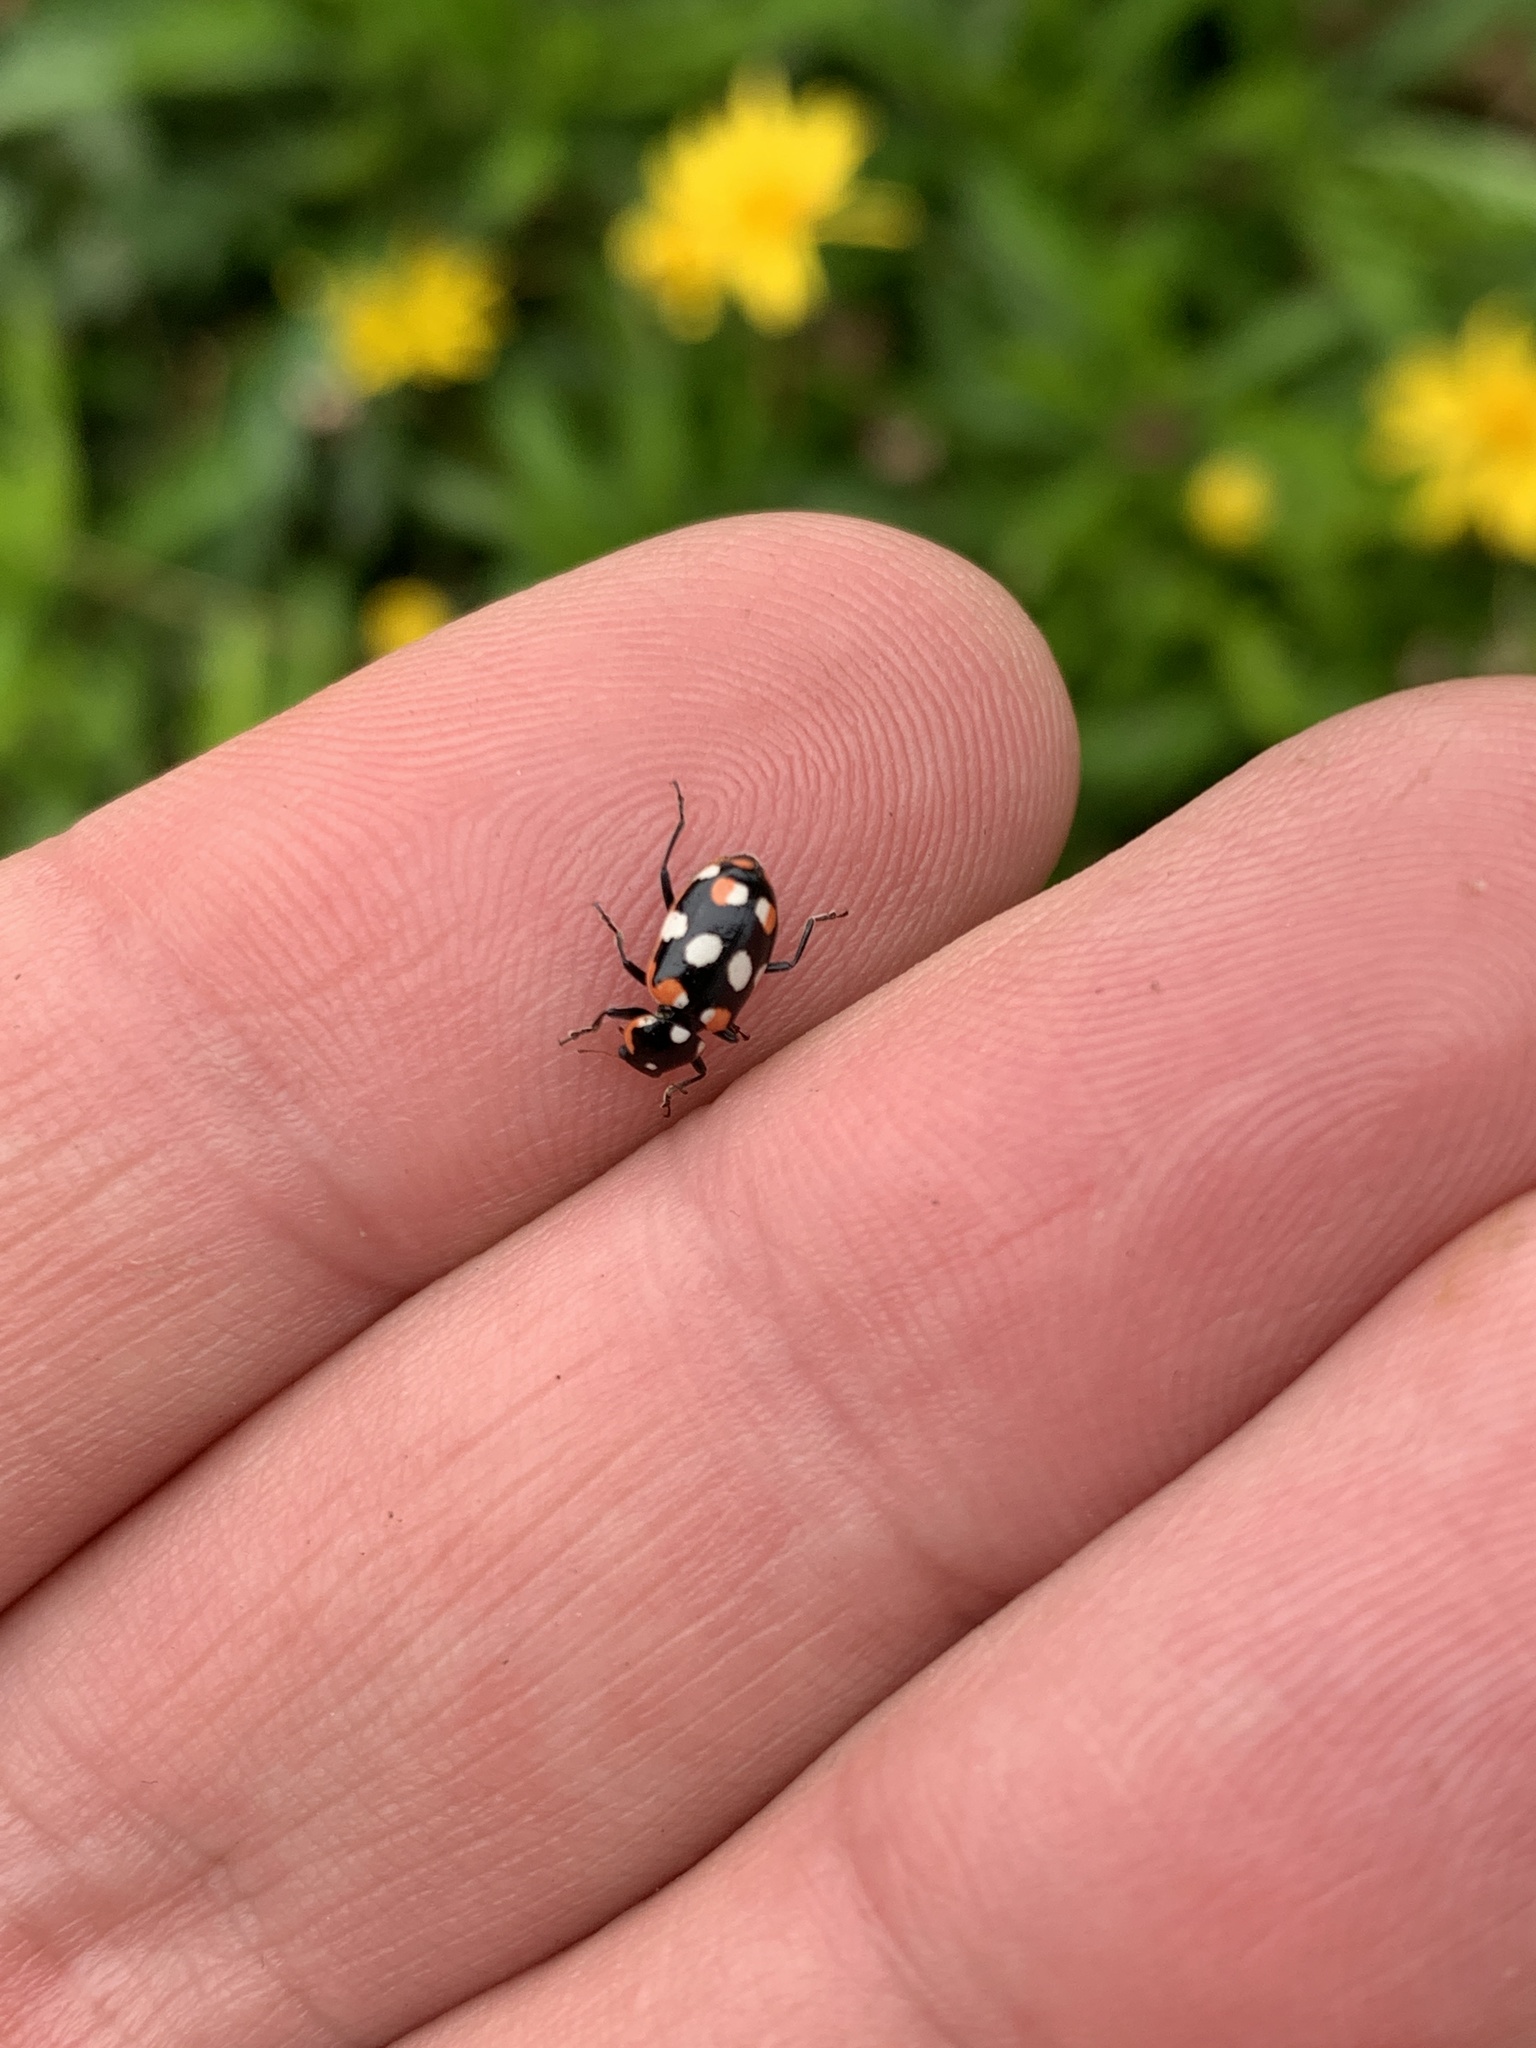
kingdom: Animalia
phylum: Arthropoda
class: Insecta
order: Coleoptera
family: Coccinellidae
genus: Eriopis
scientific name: Eriopis connexa
